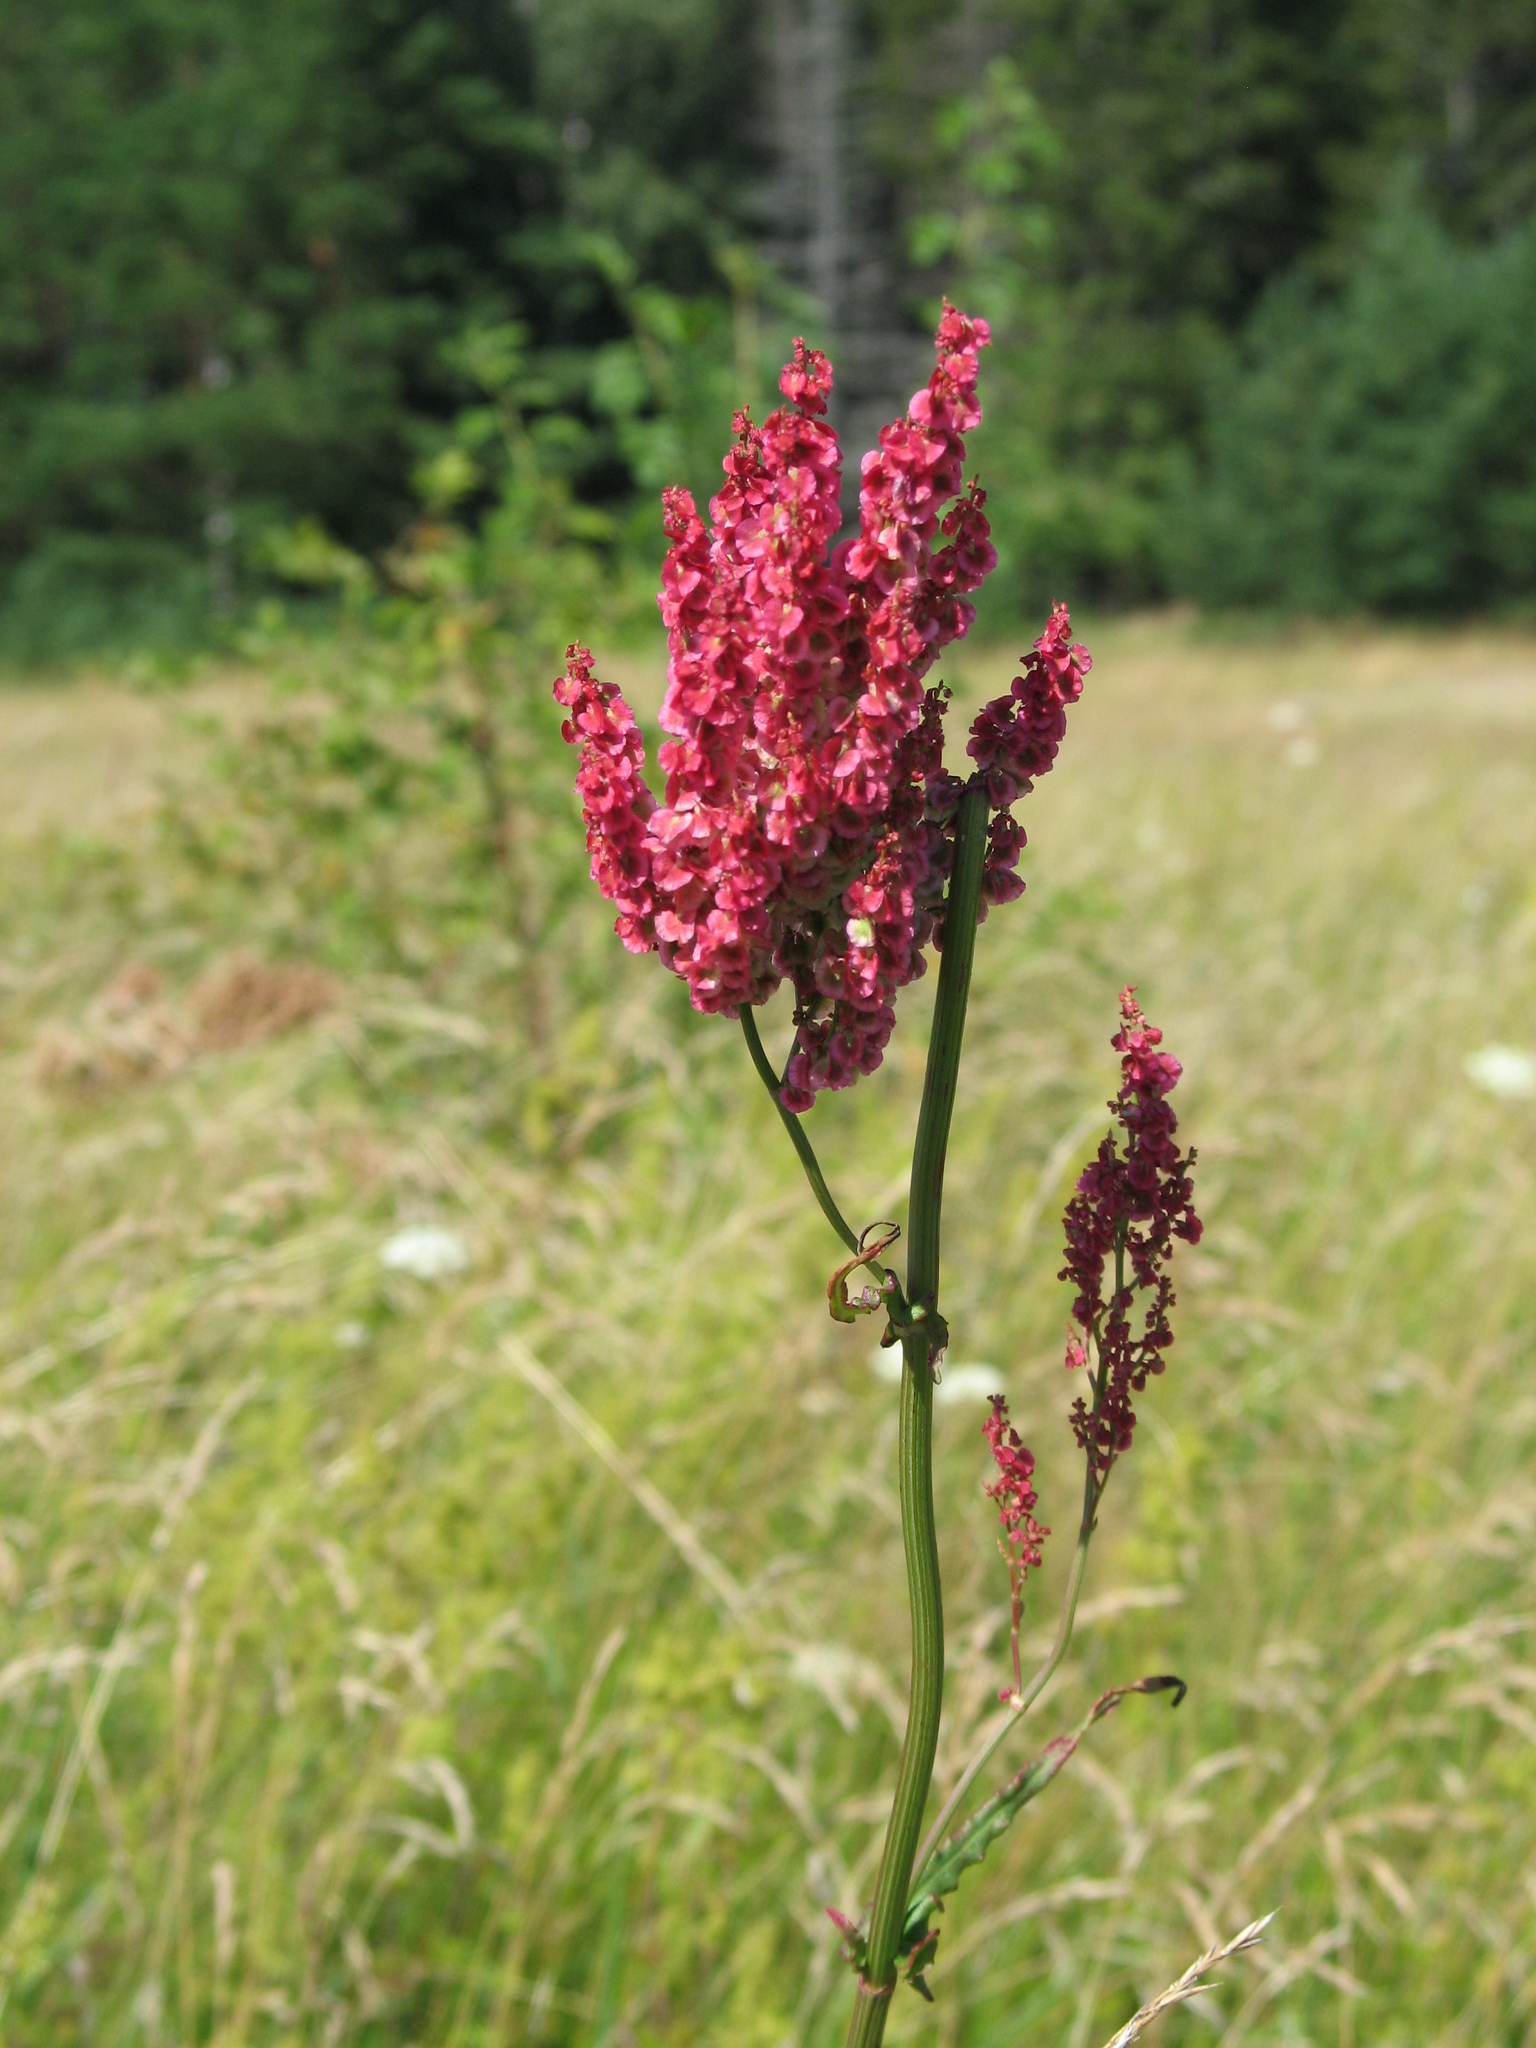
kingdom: Plantae
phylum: Tracheophyta
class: Magnoliopsida
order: Caryophyllales
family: Polygonaceae
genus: Rumex
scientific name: Rumex acetosa
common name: Garden sorrel
